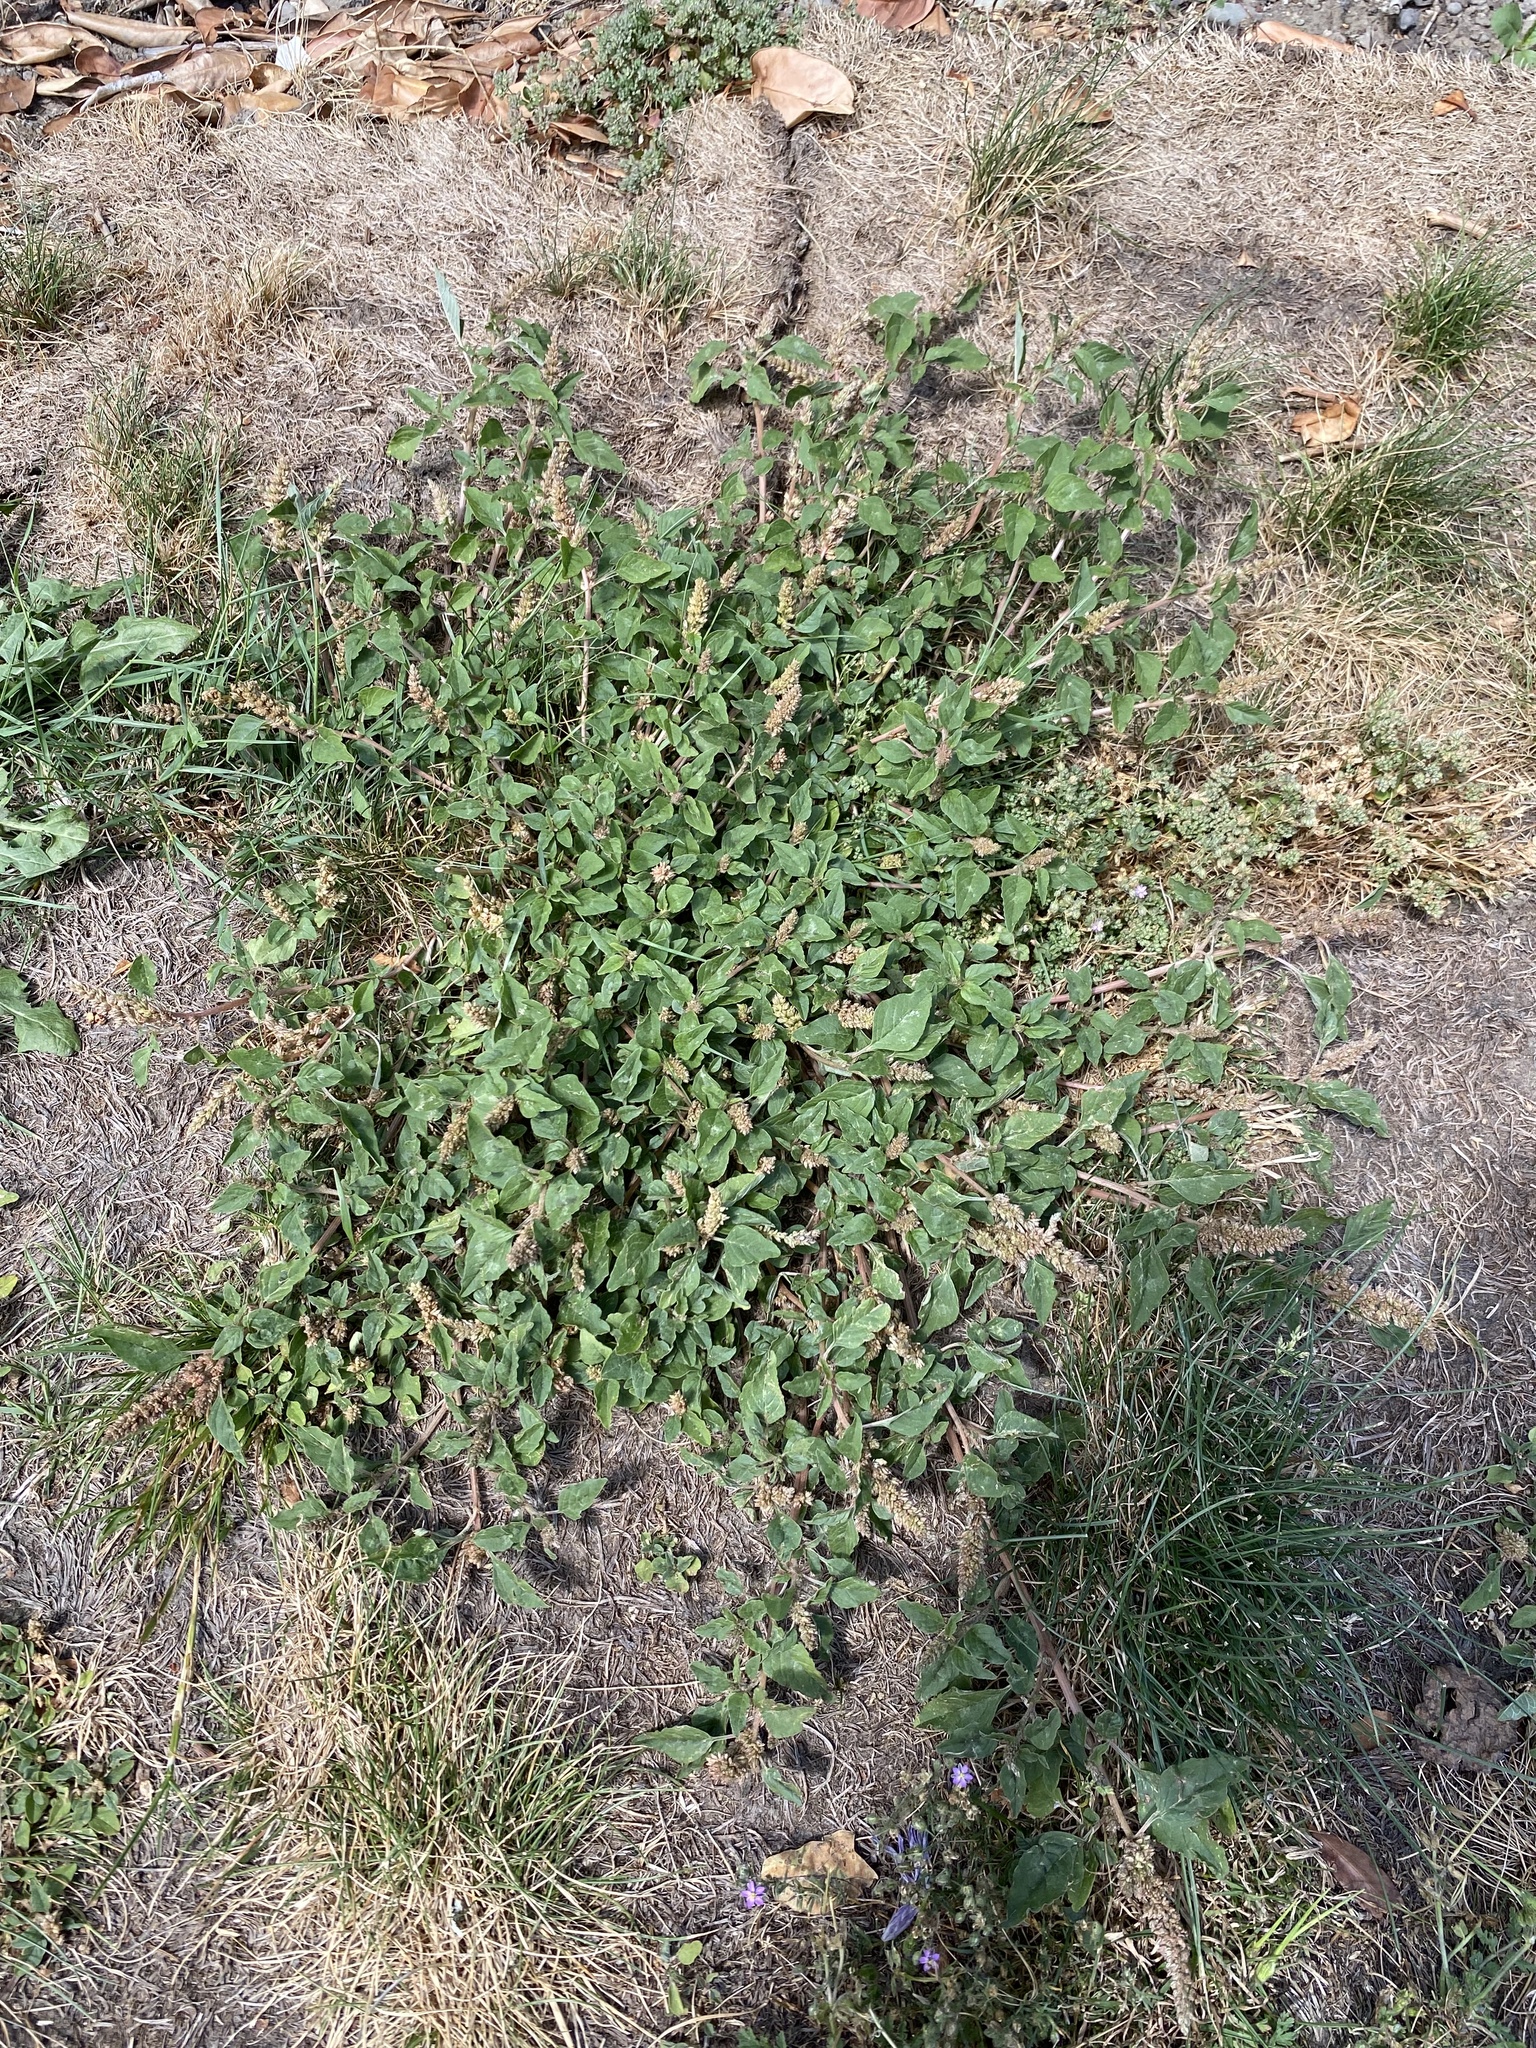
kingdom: Plantae
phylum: Tracheophyta
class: Magnoliopsida
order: Caryophyllales
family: Amaranthaceae
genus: Amaranthus
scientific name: Amaranthus deflexus
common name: Perennial pigweed
